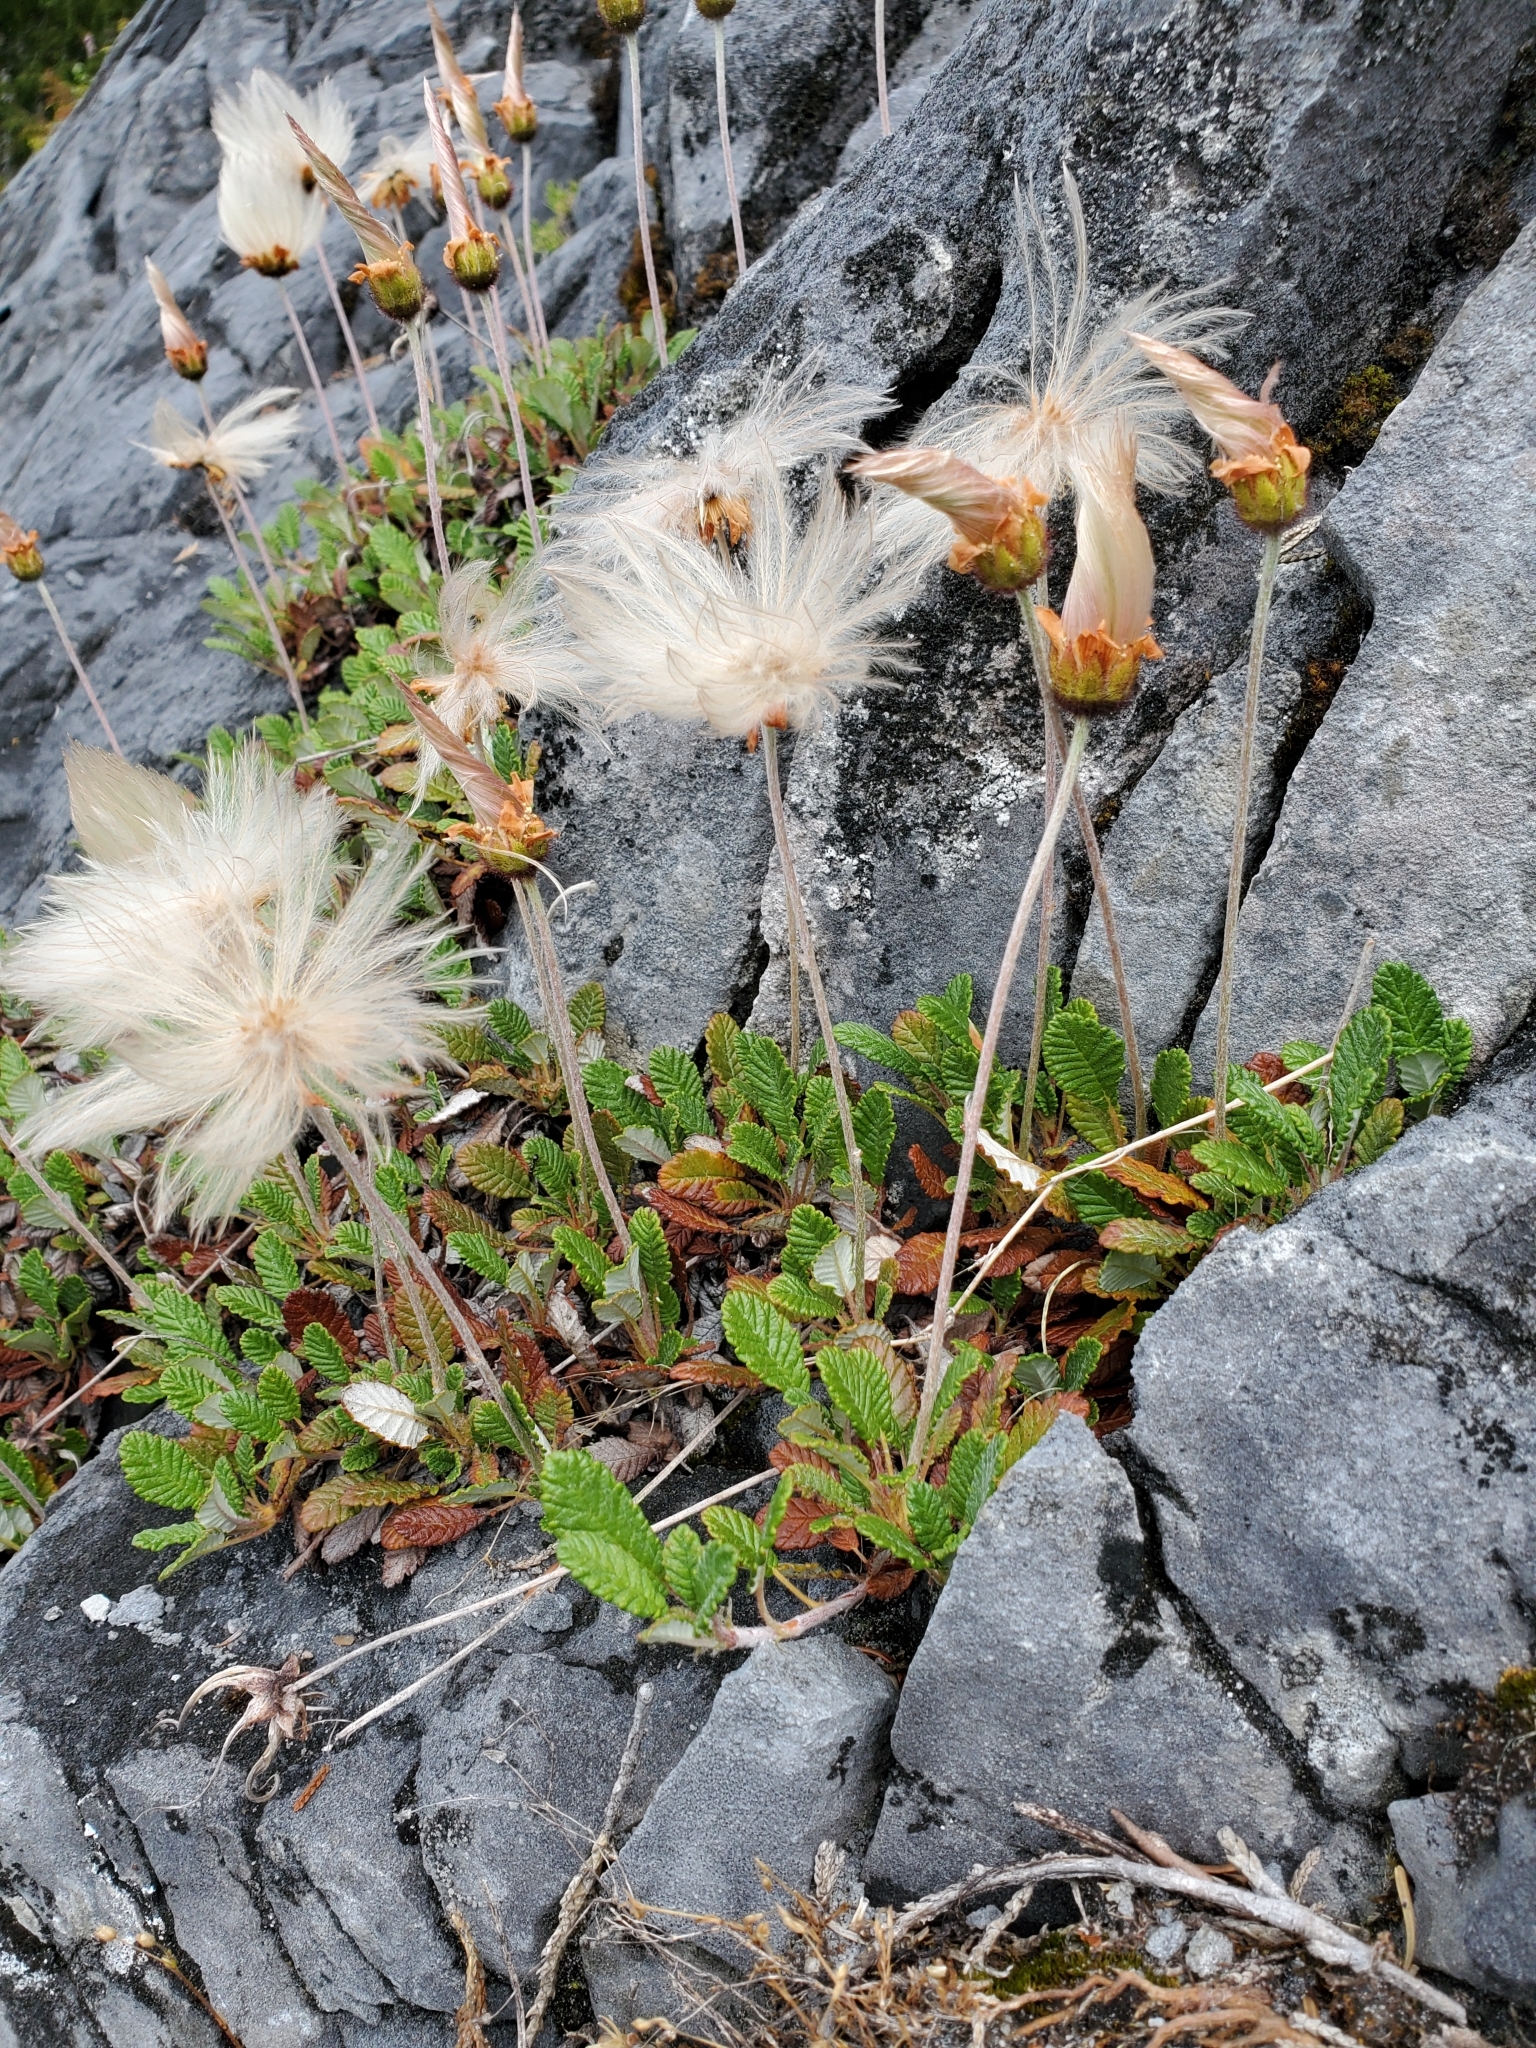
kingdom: Plantae
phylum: Tracheophyta
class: Magnoliopsida
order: Rosales
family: Rosaceae
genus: Dryas
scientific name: Dryas drummondii
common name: Drummond's dryad
